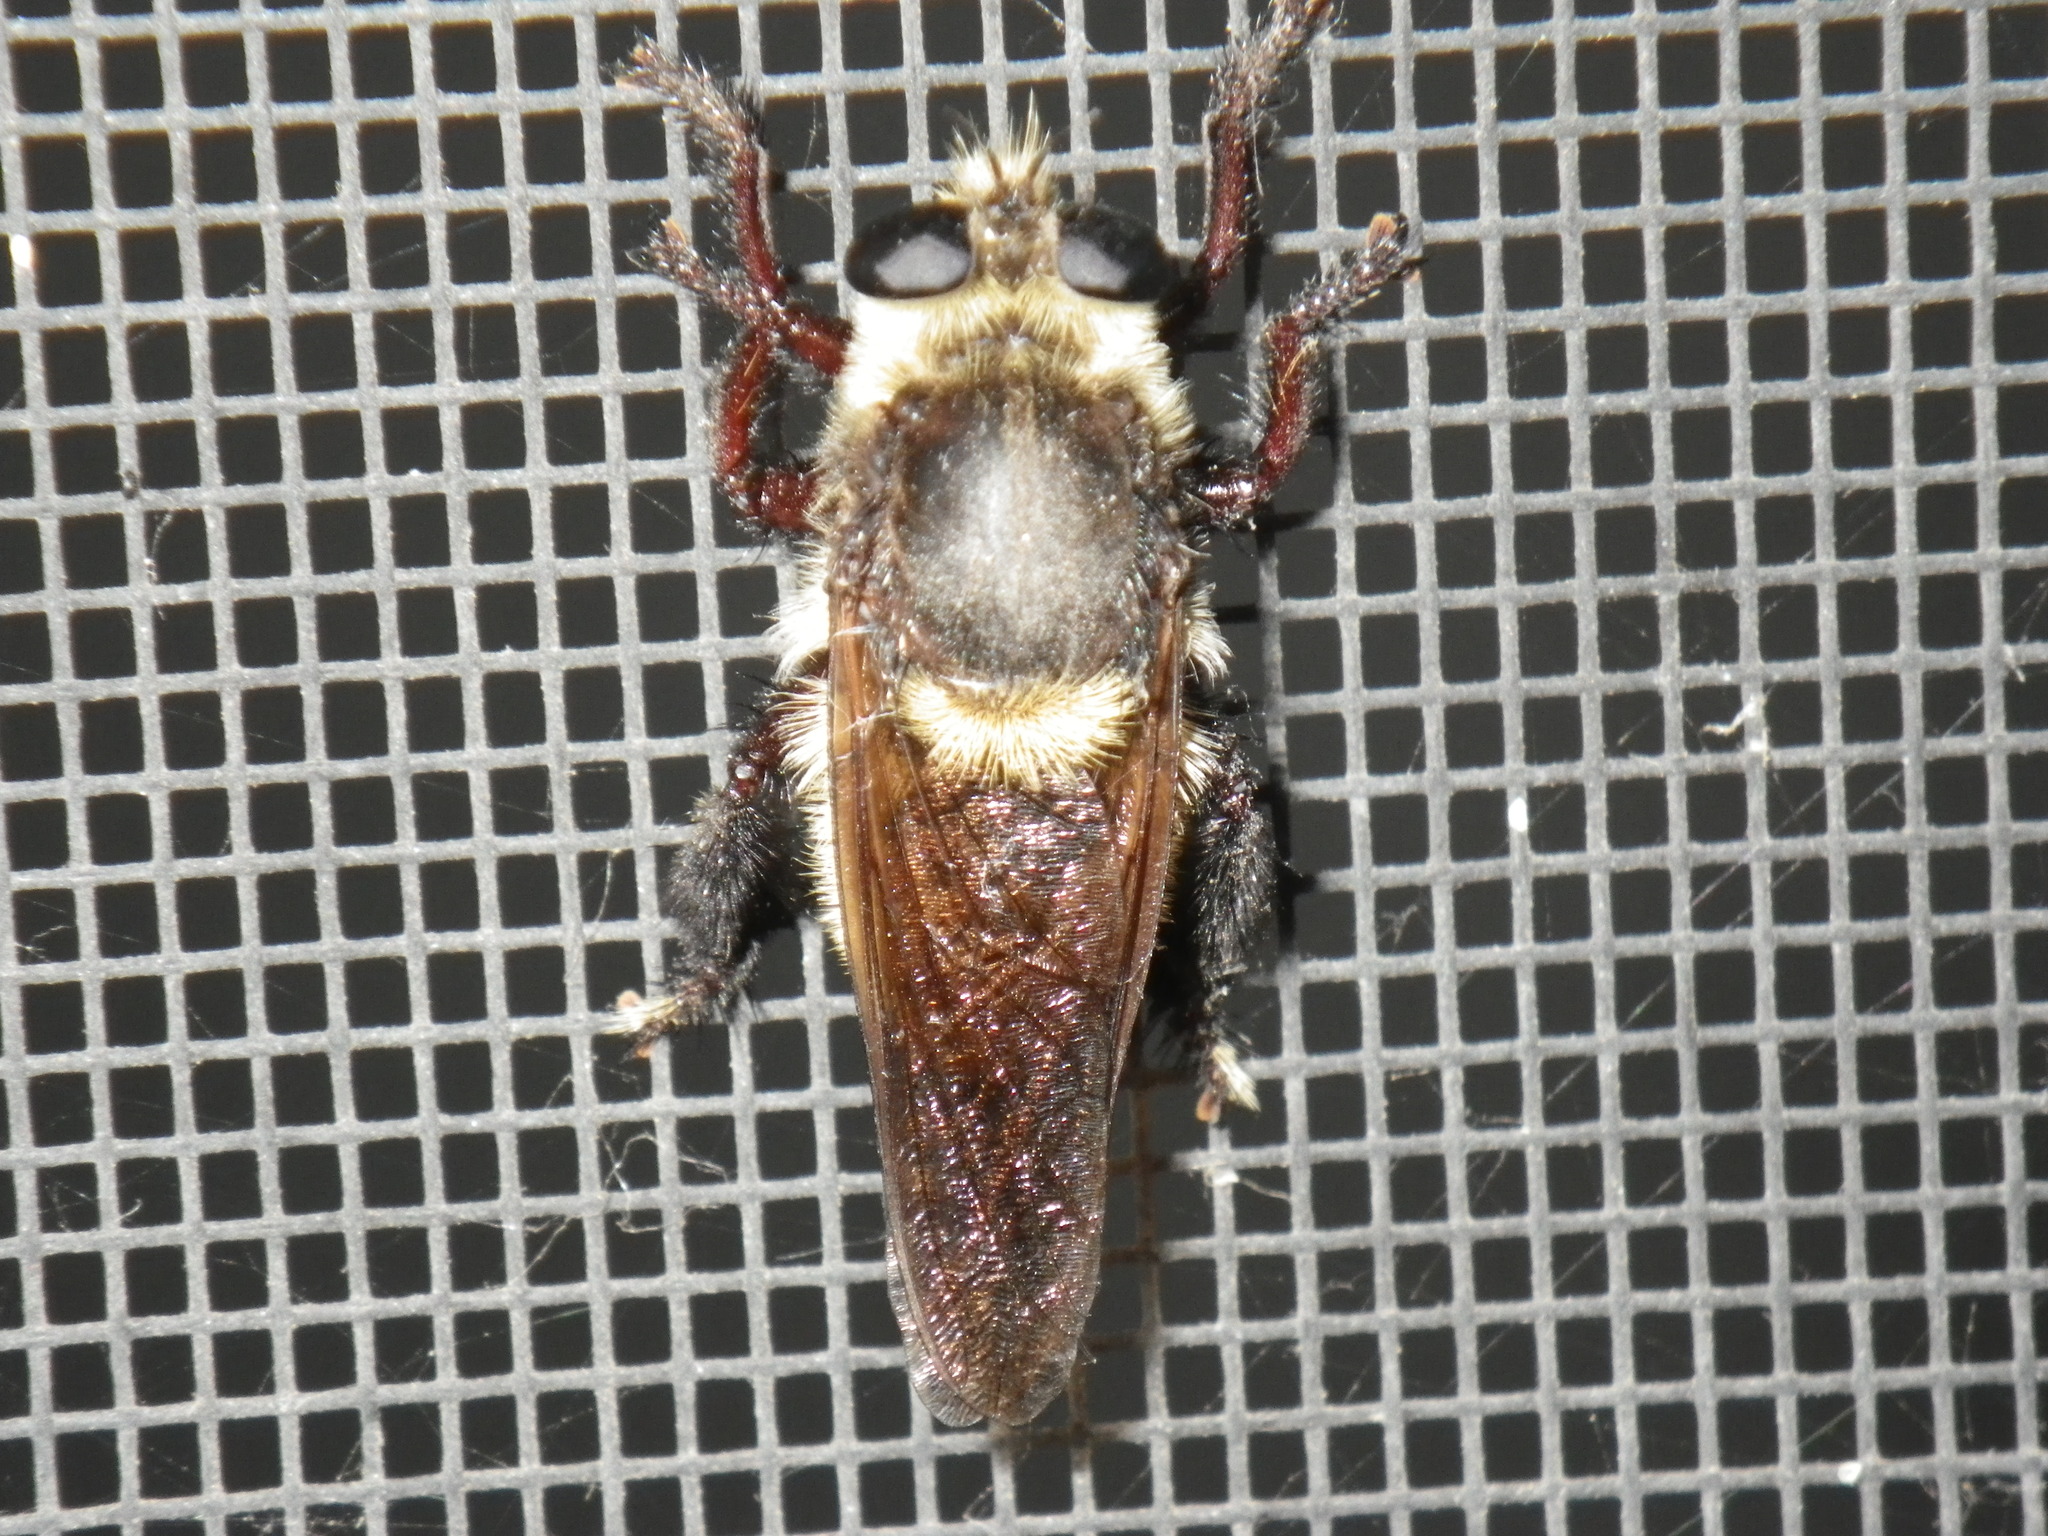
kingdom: Animalia
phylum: Arthropoda
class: Insecta
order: Diptera
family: Asilidae
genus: Mallophora
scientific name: Mallophora fautrix
